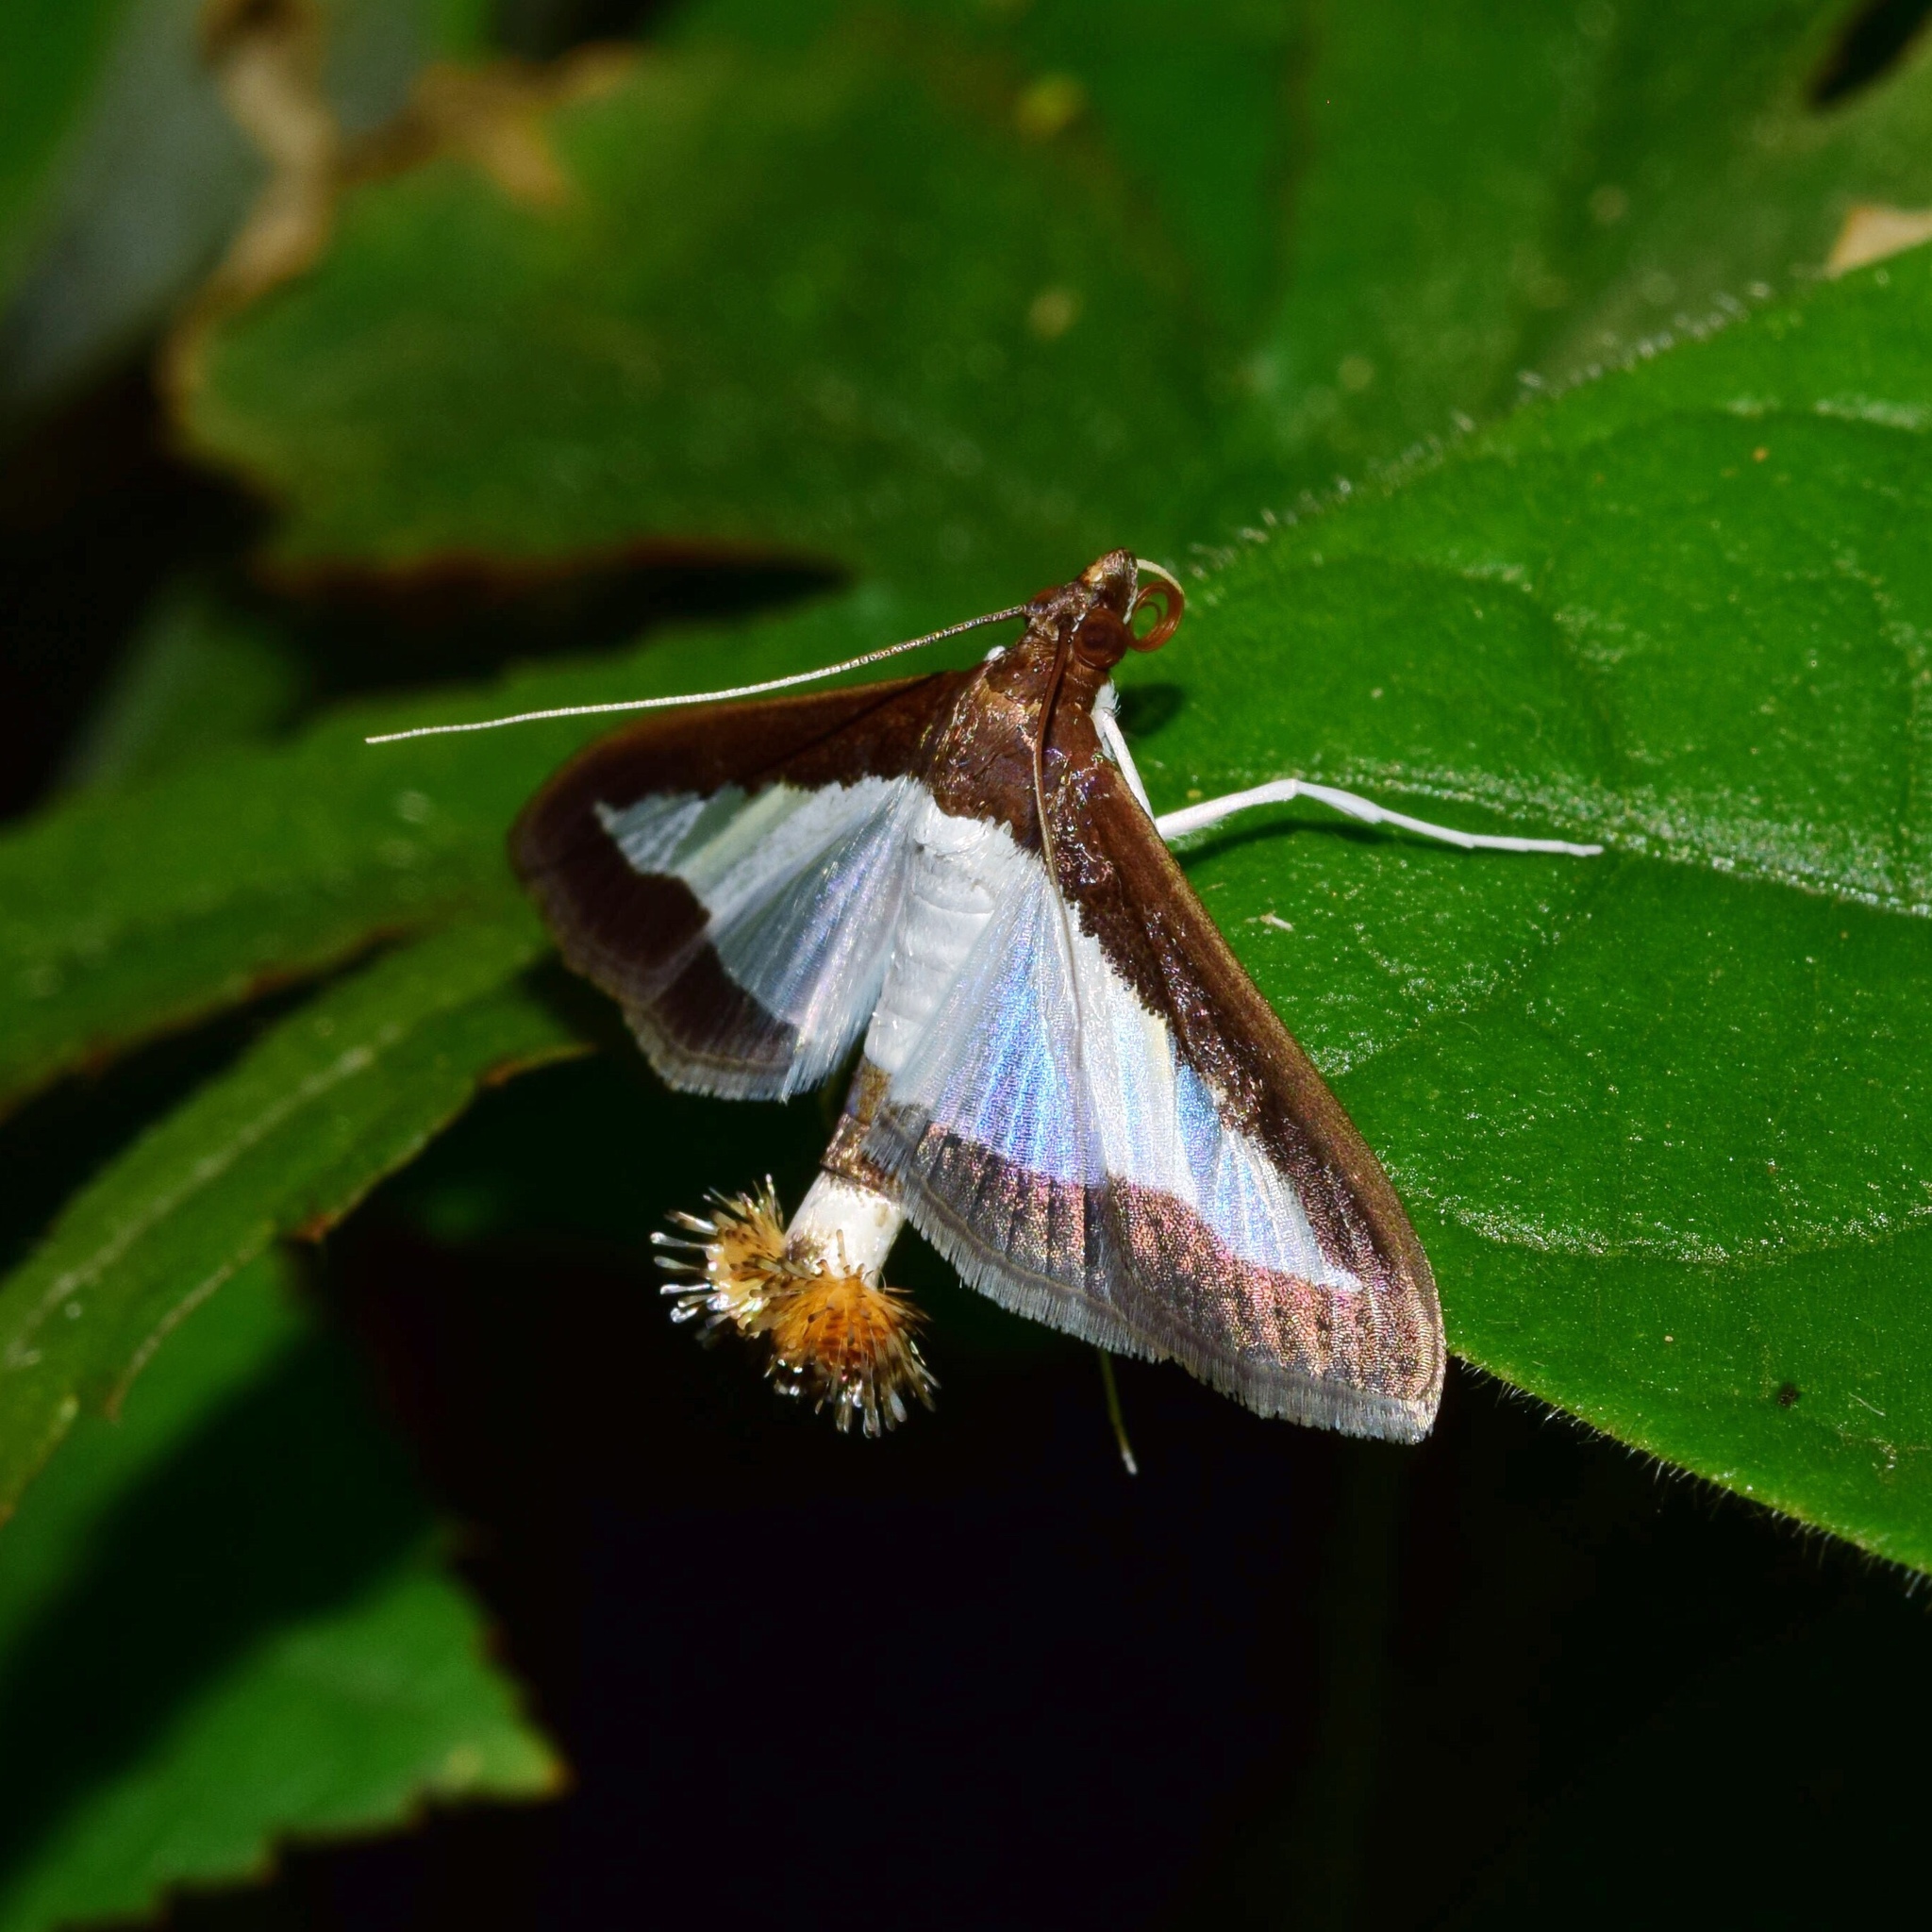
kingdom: Animalia
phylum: Arthropoda
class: Insecta
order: Lepidoptera
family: Crambidae
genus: Diaphania
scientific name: Diaphania indica
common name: Cucumber moth
